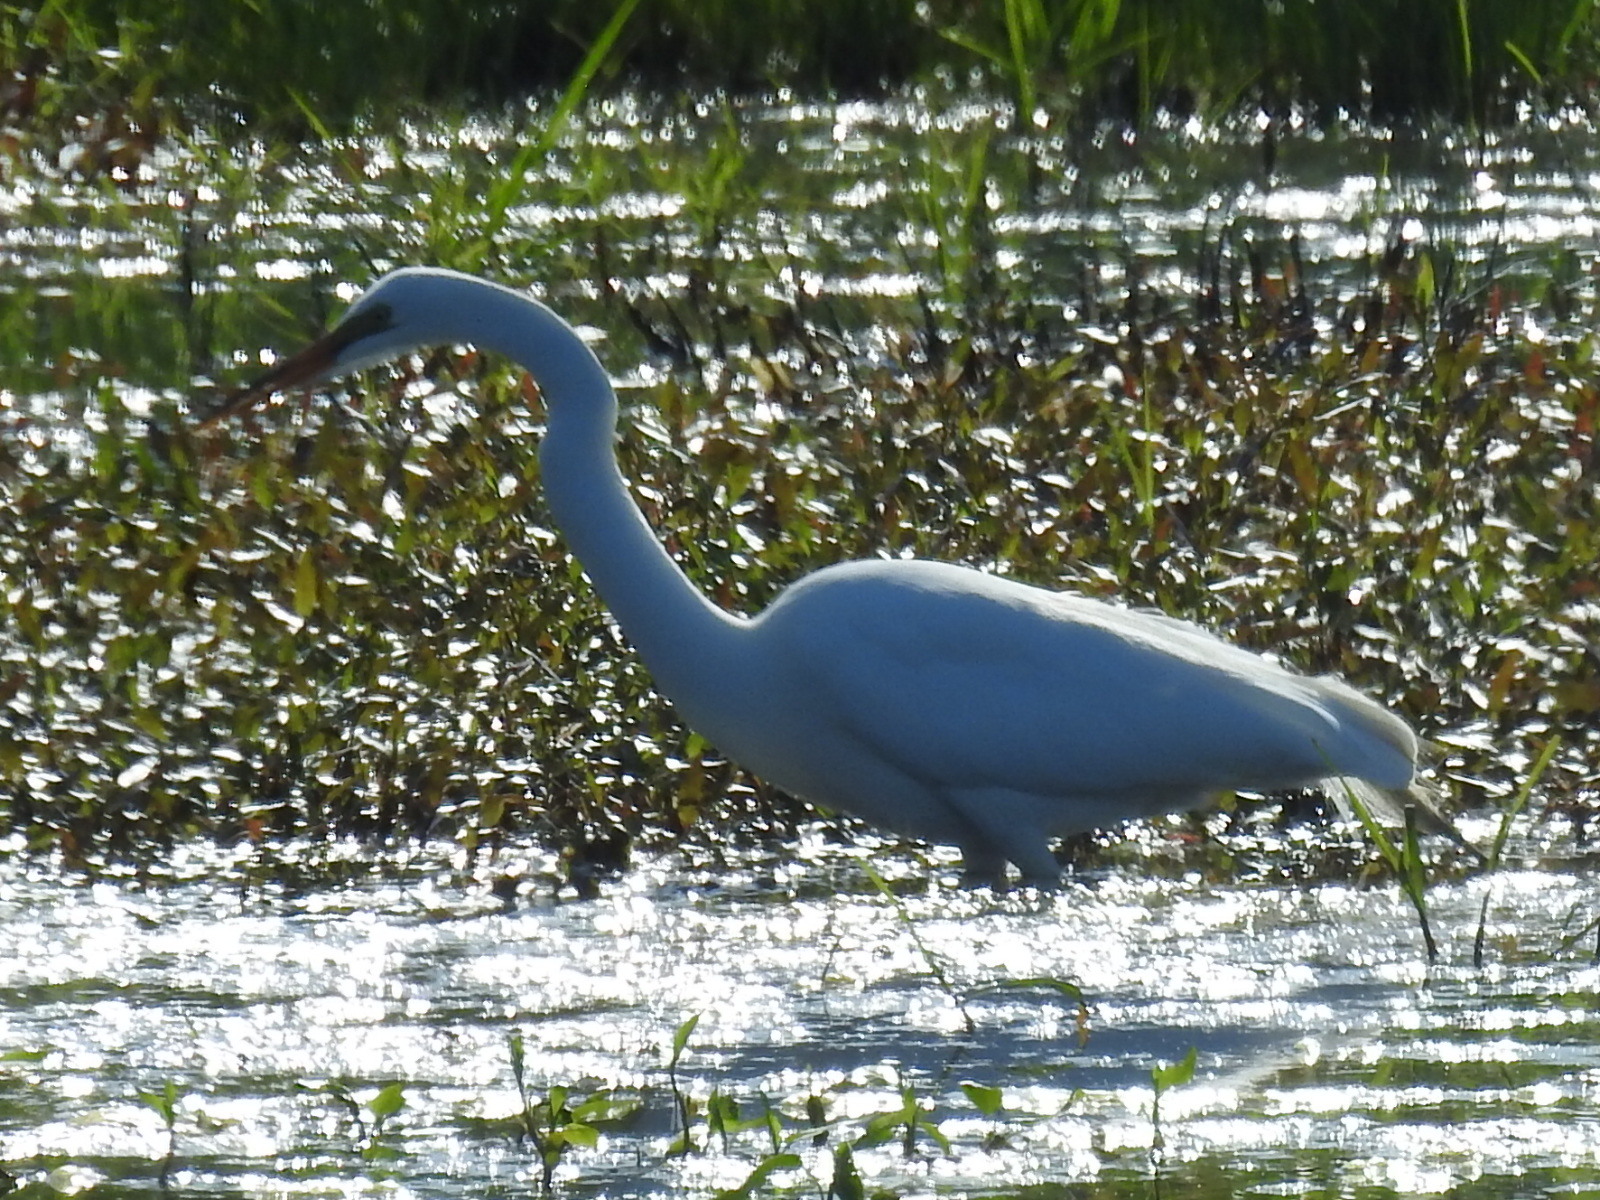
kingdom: Animalia
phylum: Chordata
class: Aves
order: Pelecaniformes
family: Ardeidae
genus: Ardea
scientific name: Ardea alba
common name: Great egret
